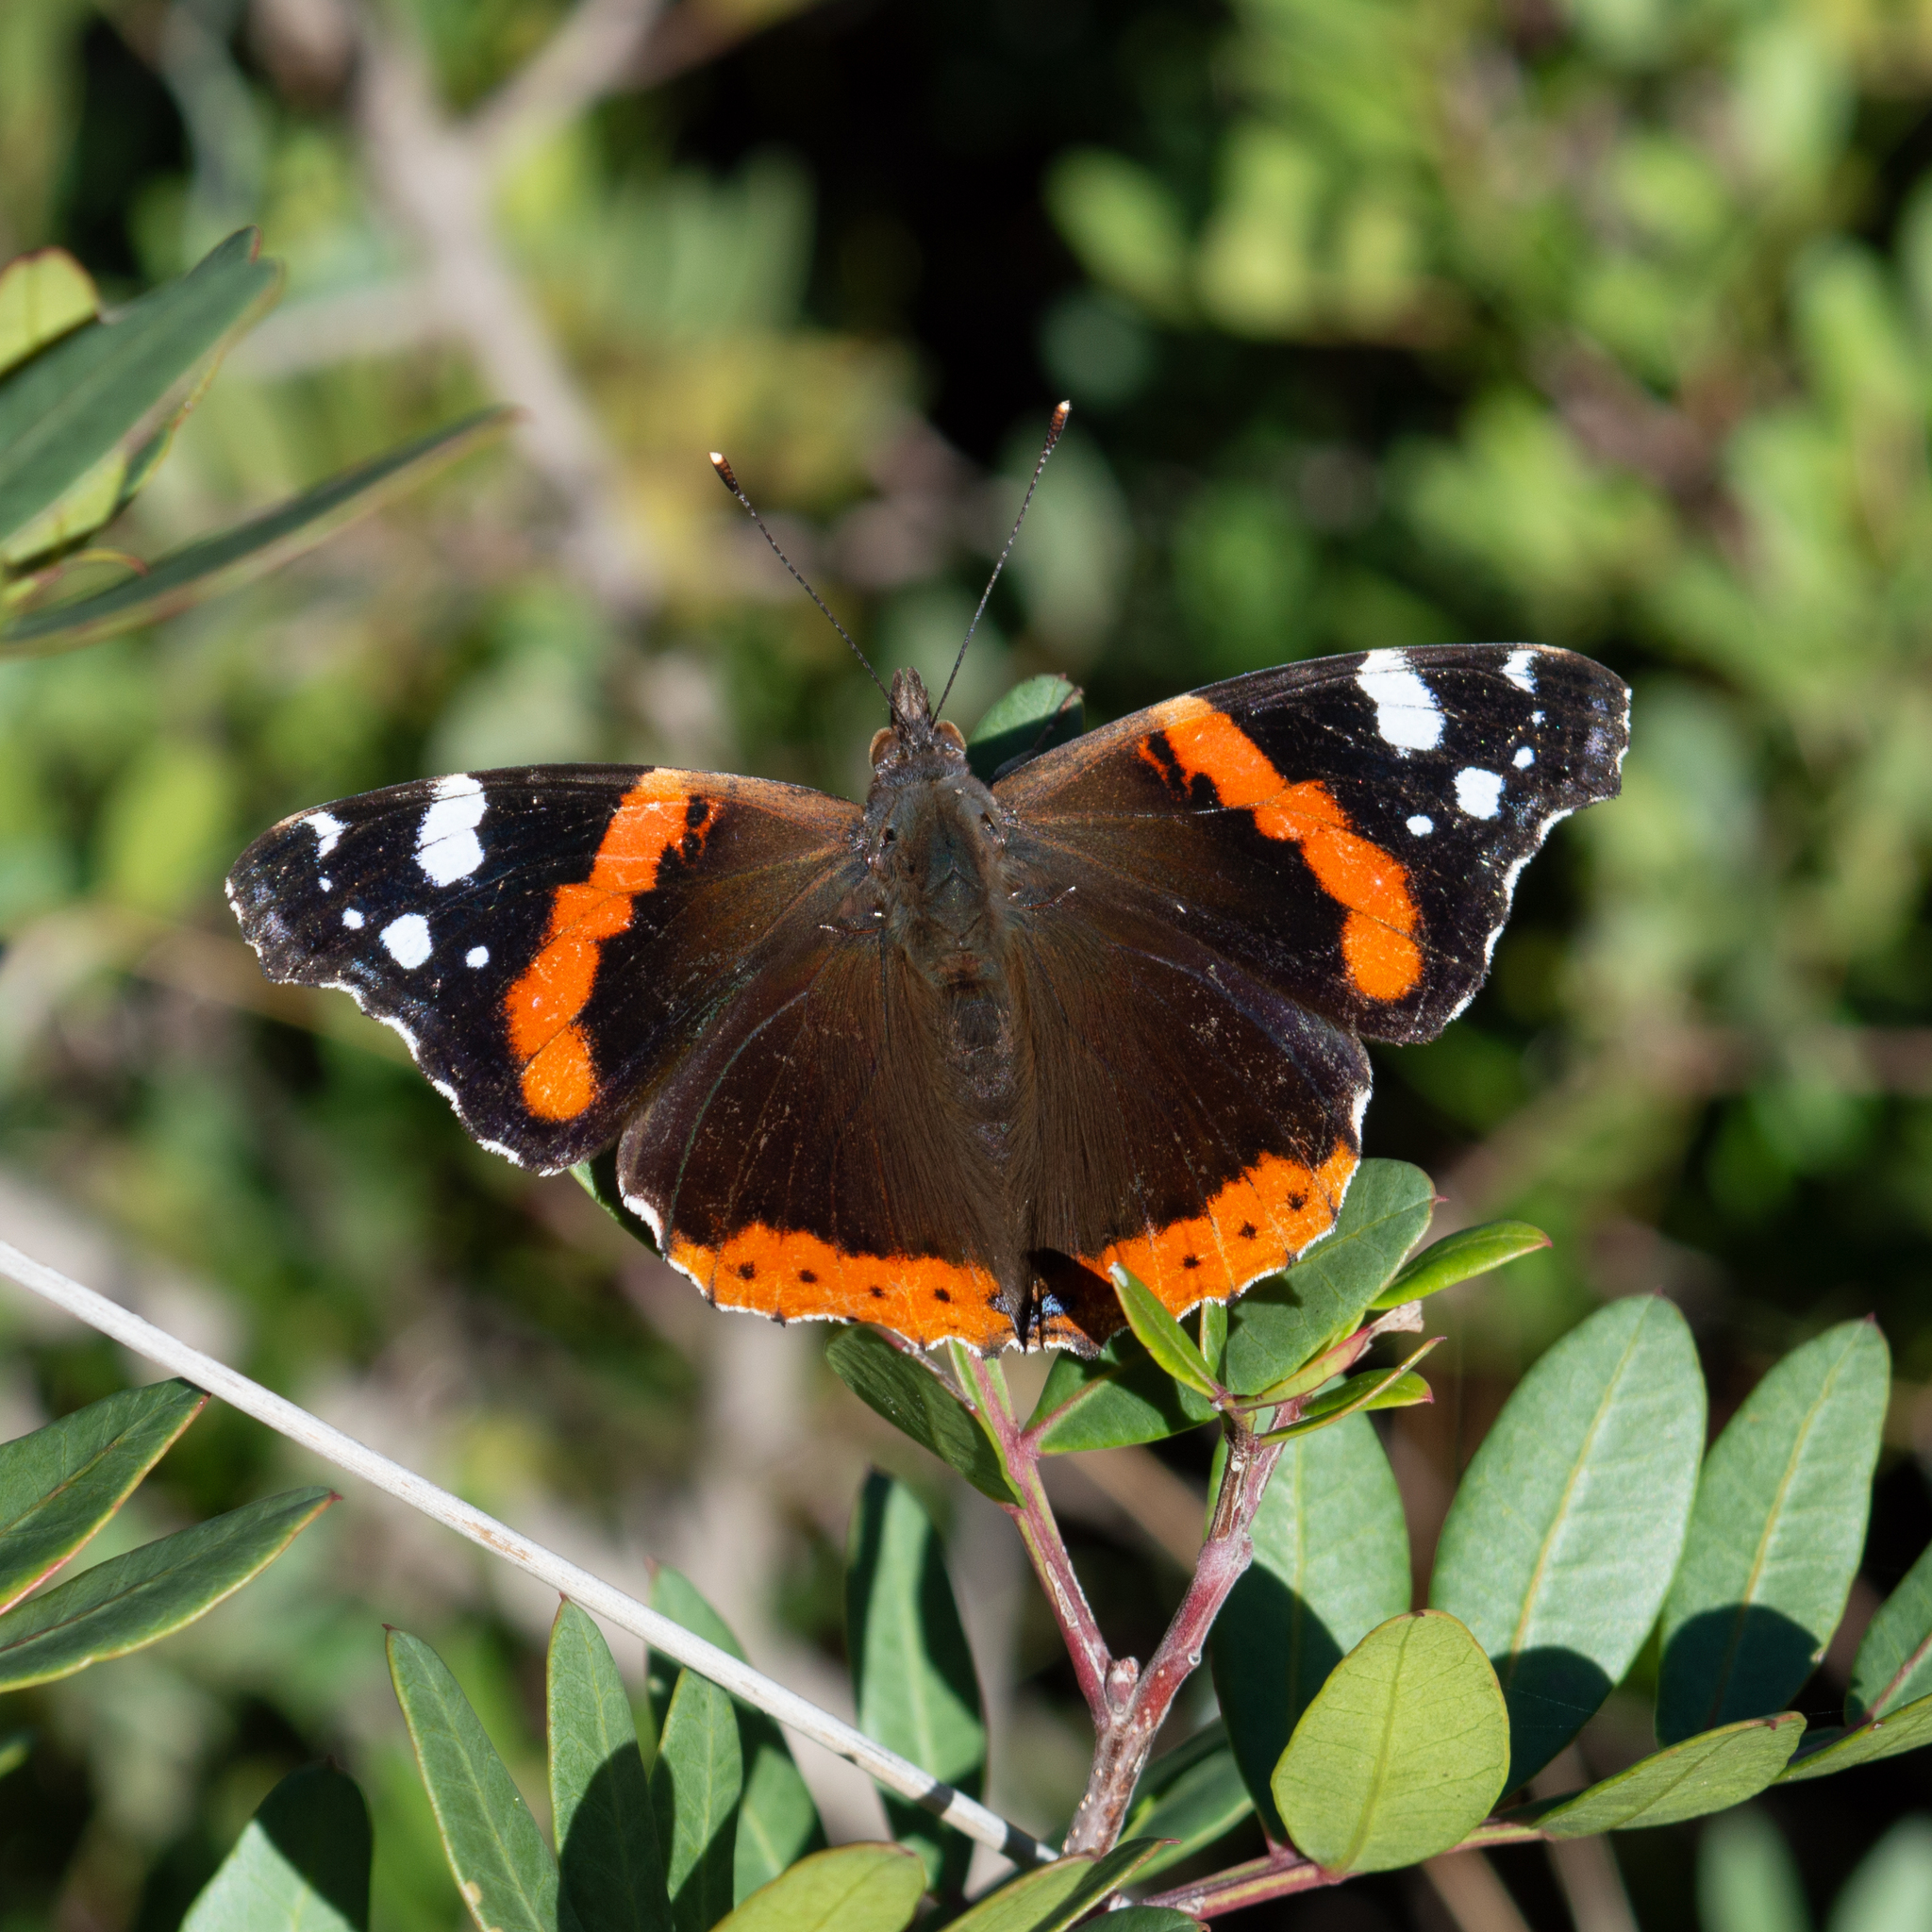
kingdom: Animalia
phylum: Arthropoda
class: Insecta
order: Lepidoptera
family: Nymphalidae
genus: Vanessa
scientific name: Vanessa atalanta
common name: Red admiral
